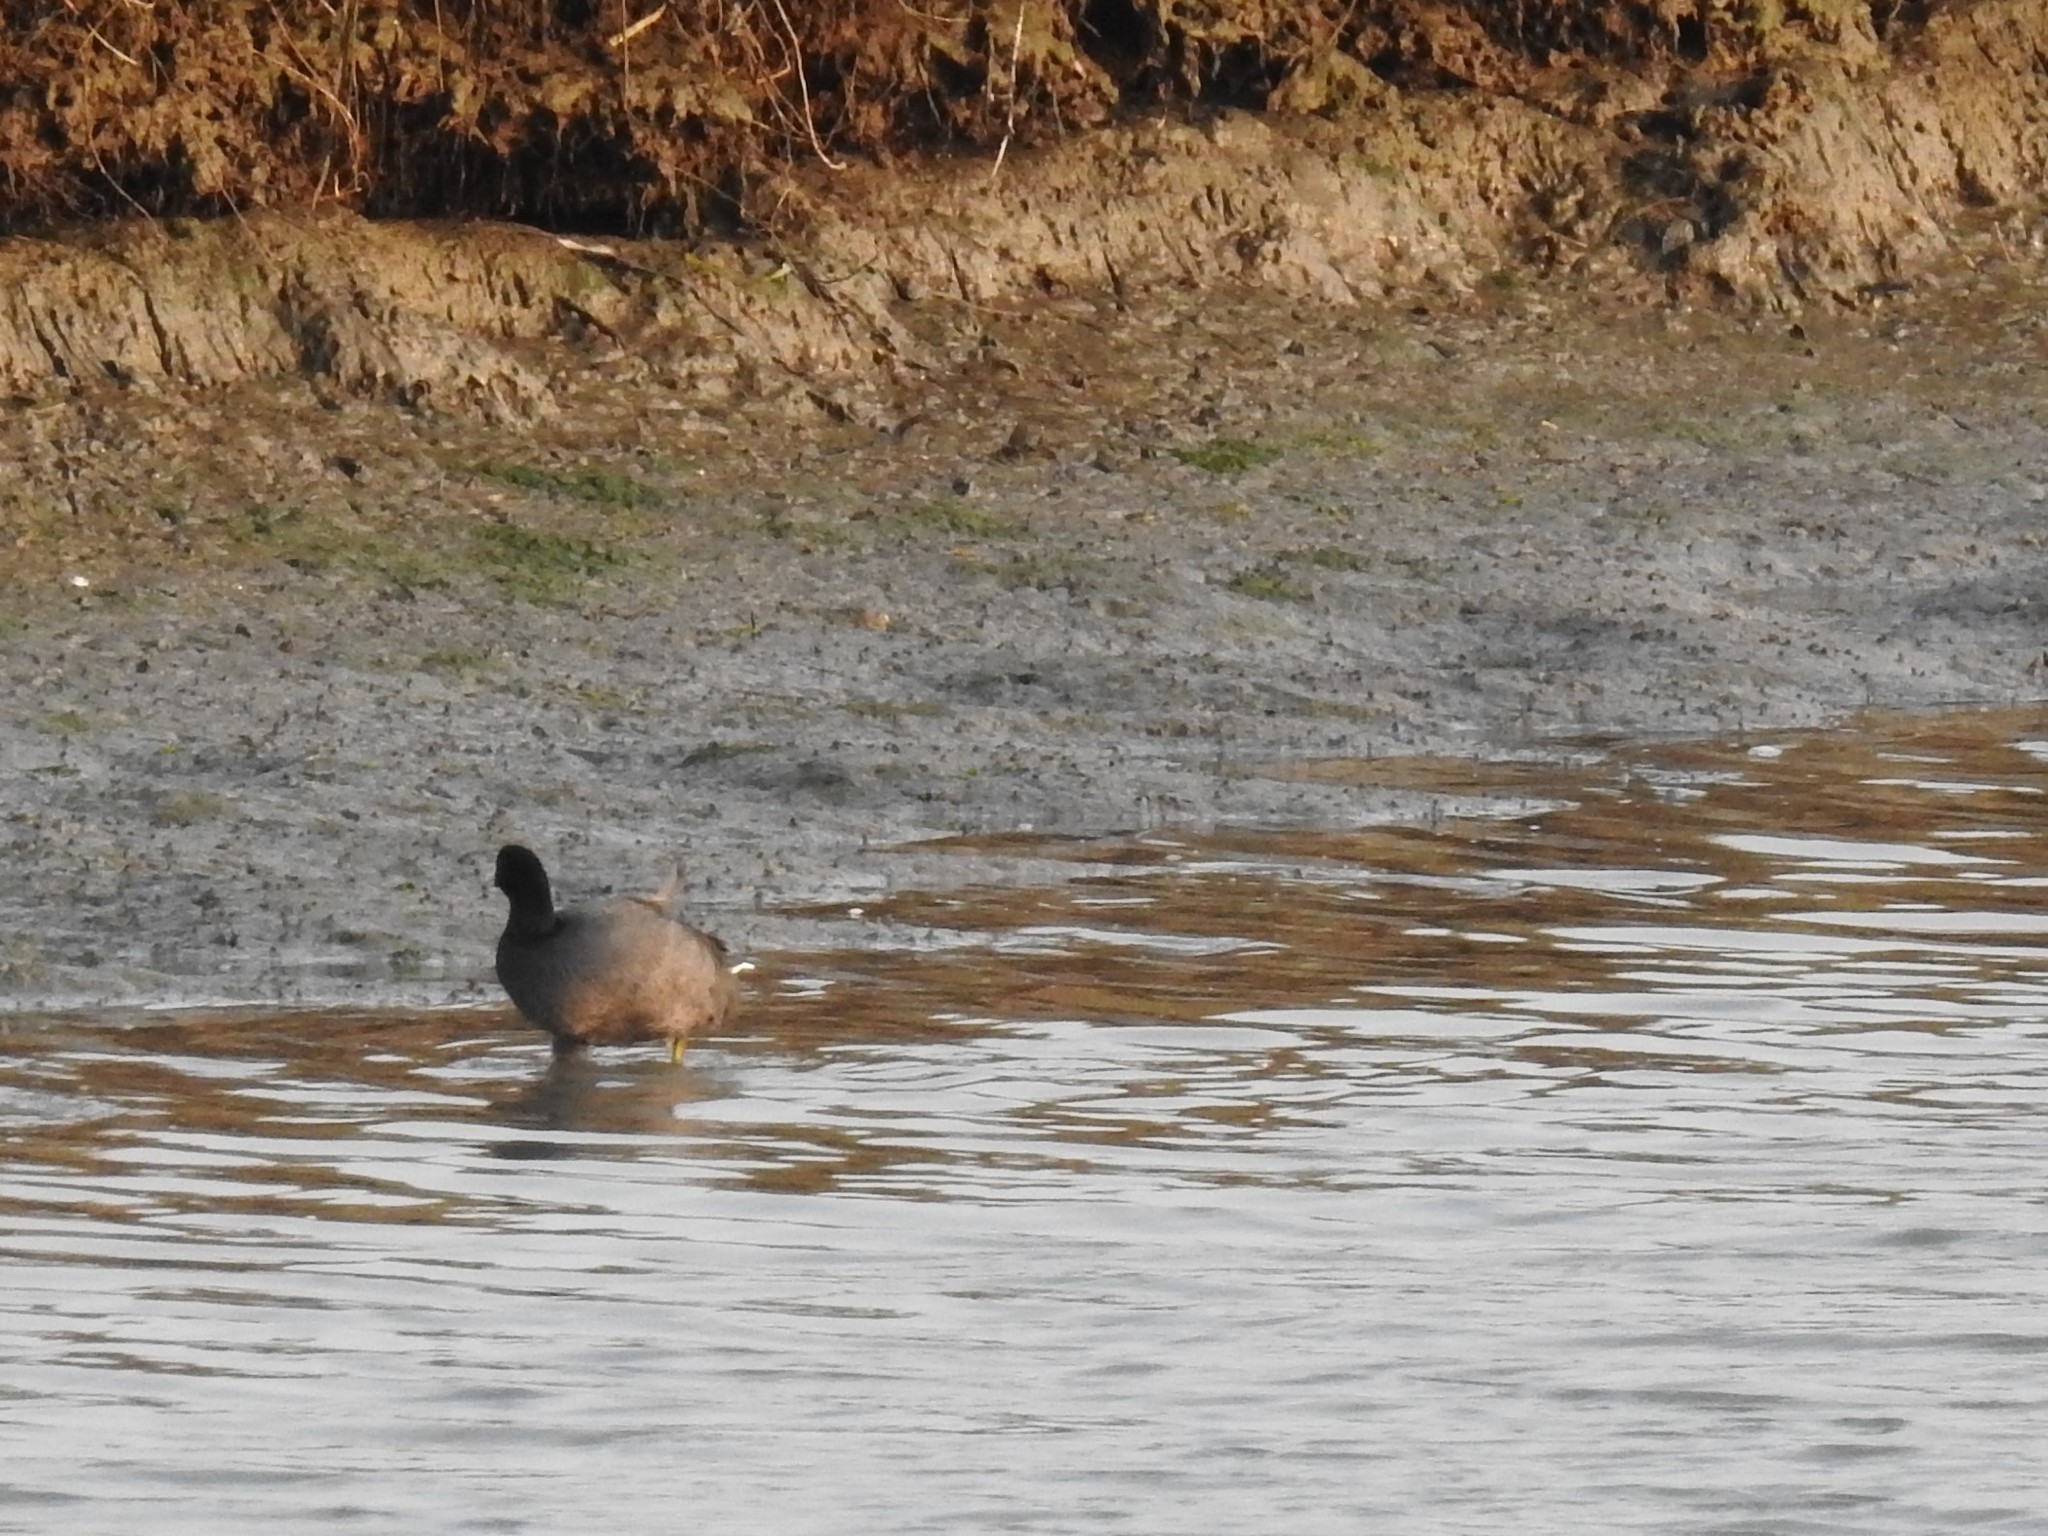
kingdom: Animalia
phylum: Chordata
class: Aves
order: Gruiformes
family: Rallidae
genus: Fulica
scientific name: Fulica americana
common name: American coot
